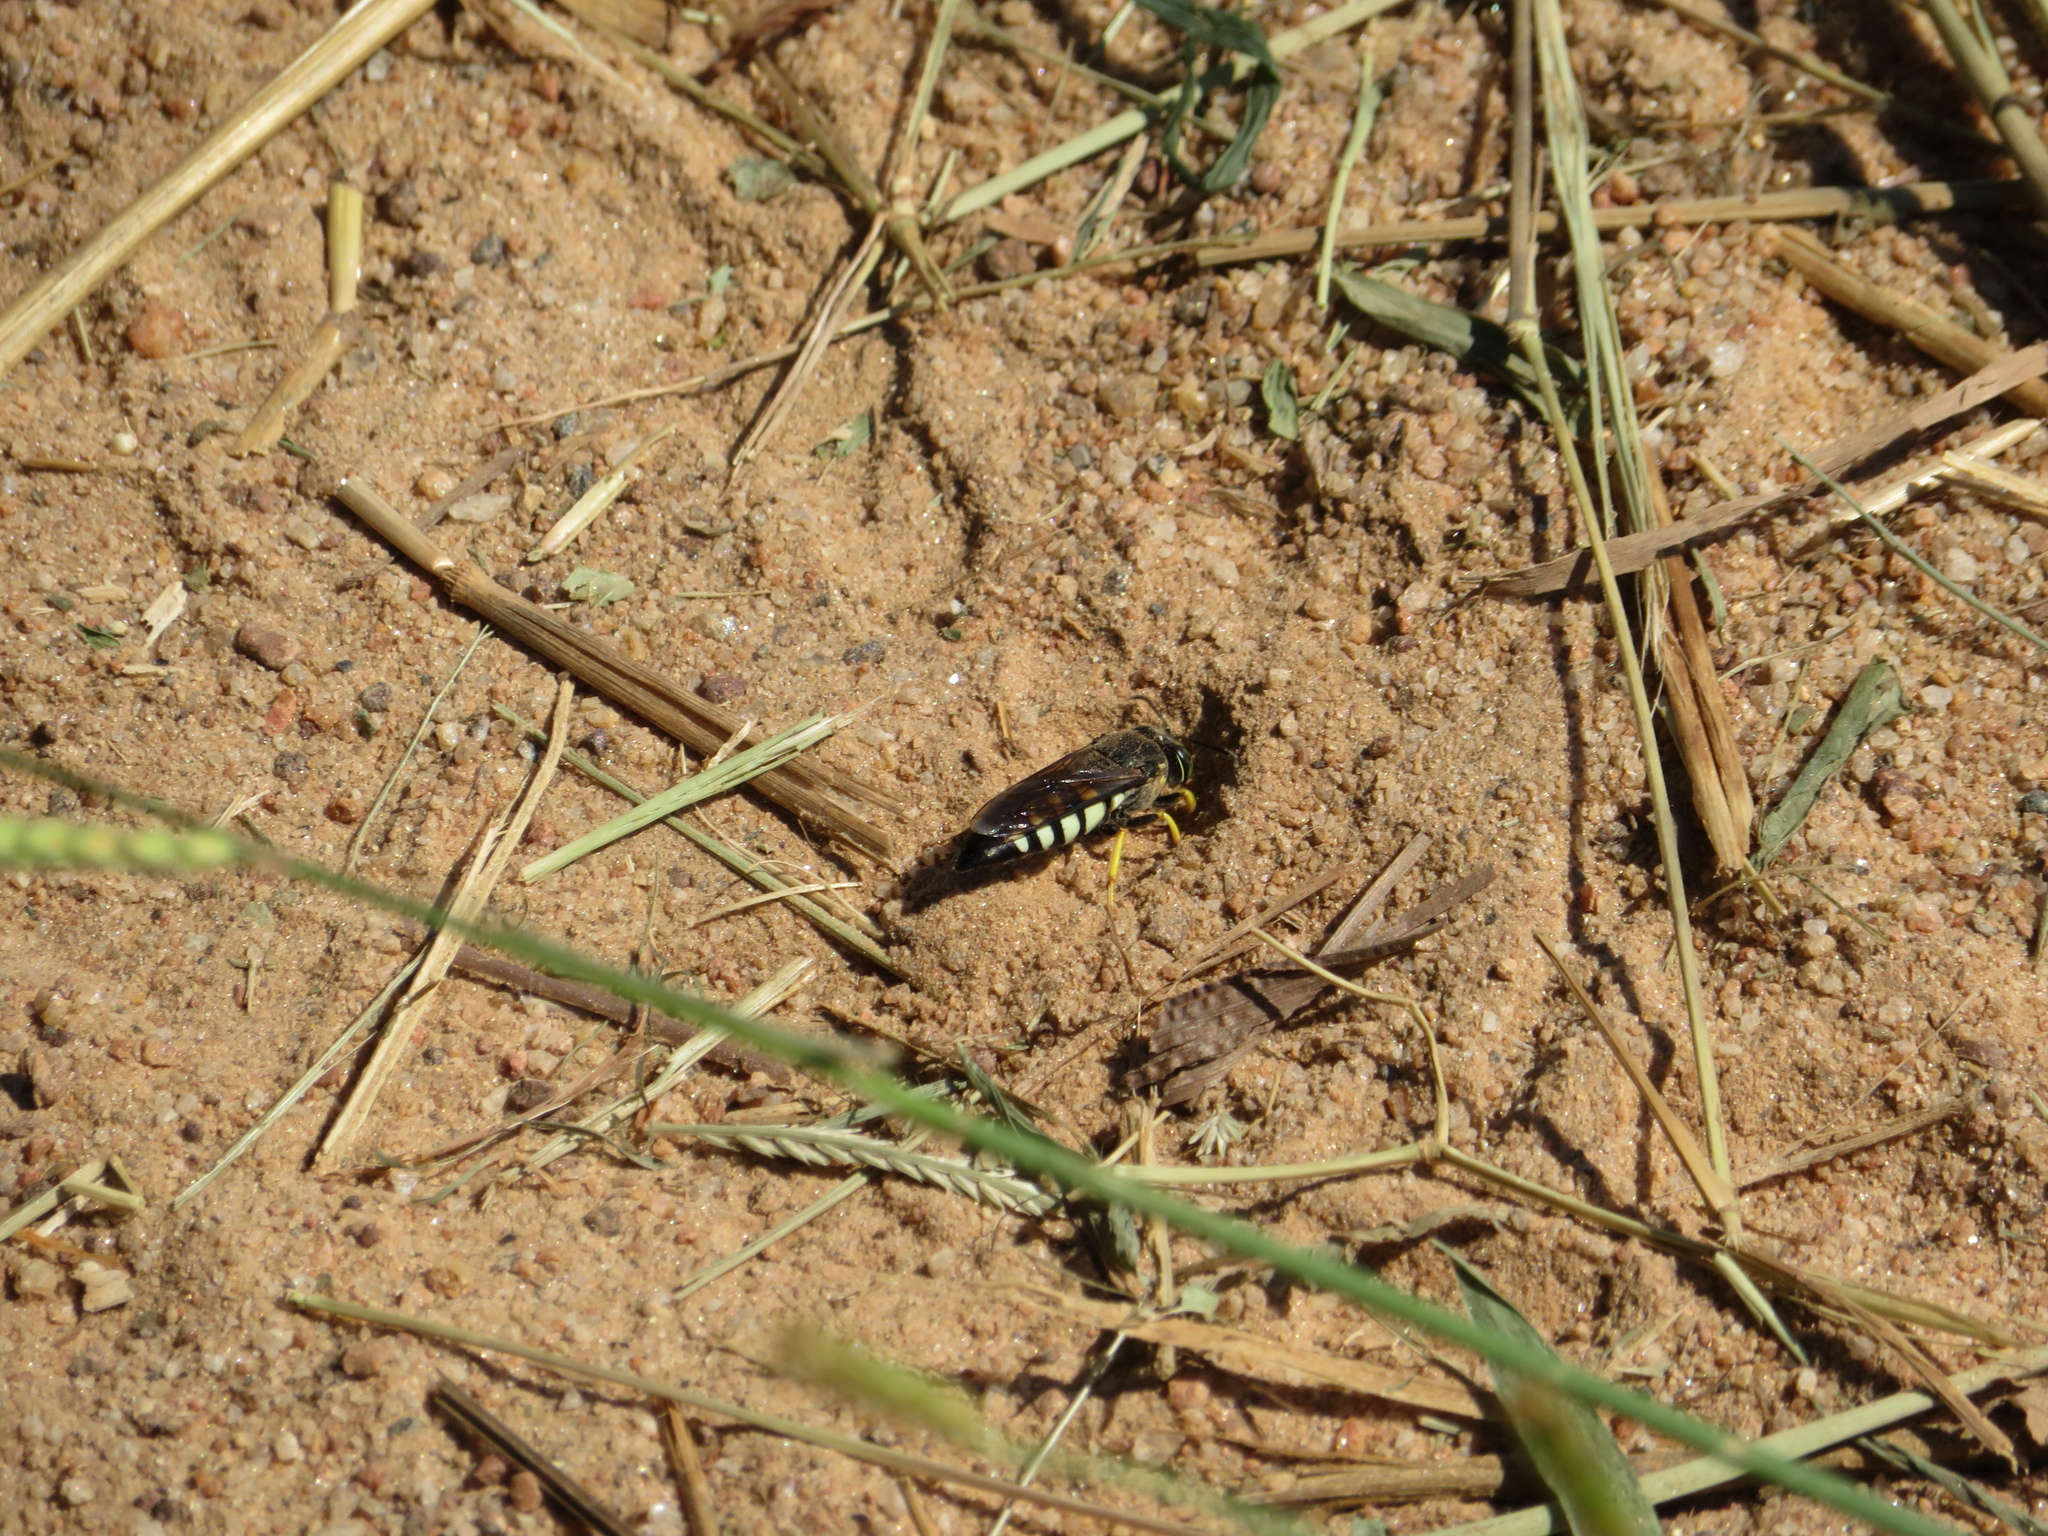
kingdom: Animalia
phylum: Arthropoda
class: Insecta
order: Hymenoptera
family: Crabronidae
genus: Bicyrtes
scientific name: Bicyrtes quadrifasciatus
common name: Four-banded stink bug hunter wasp
